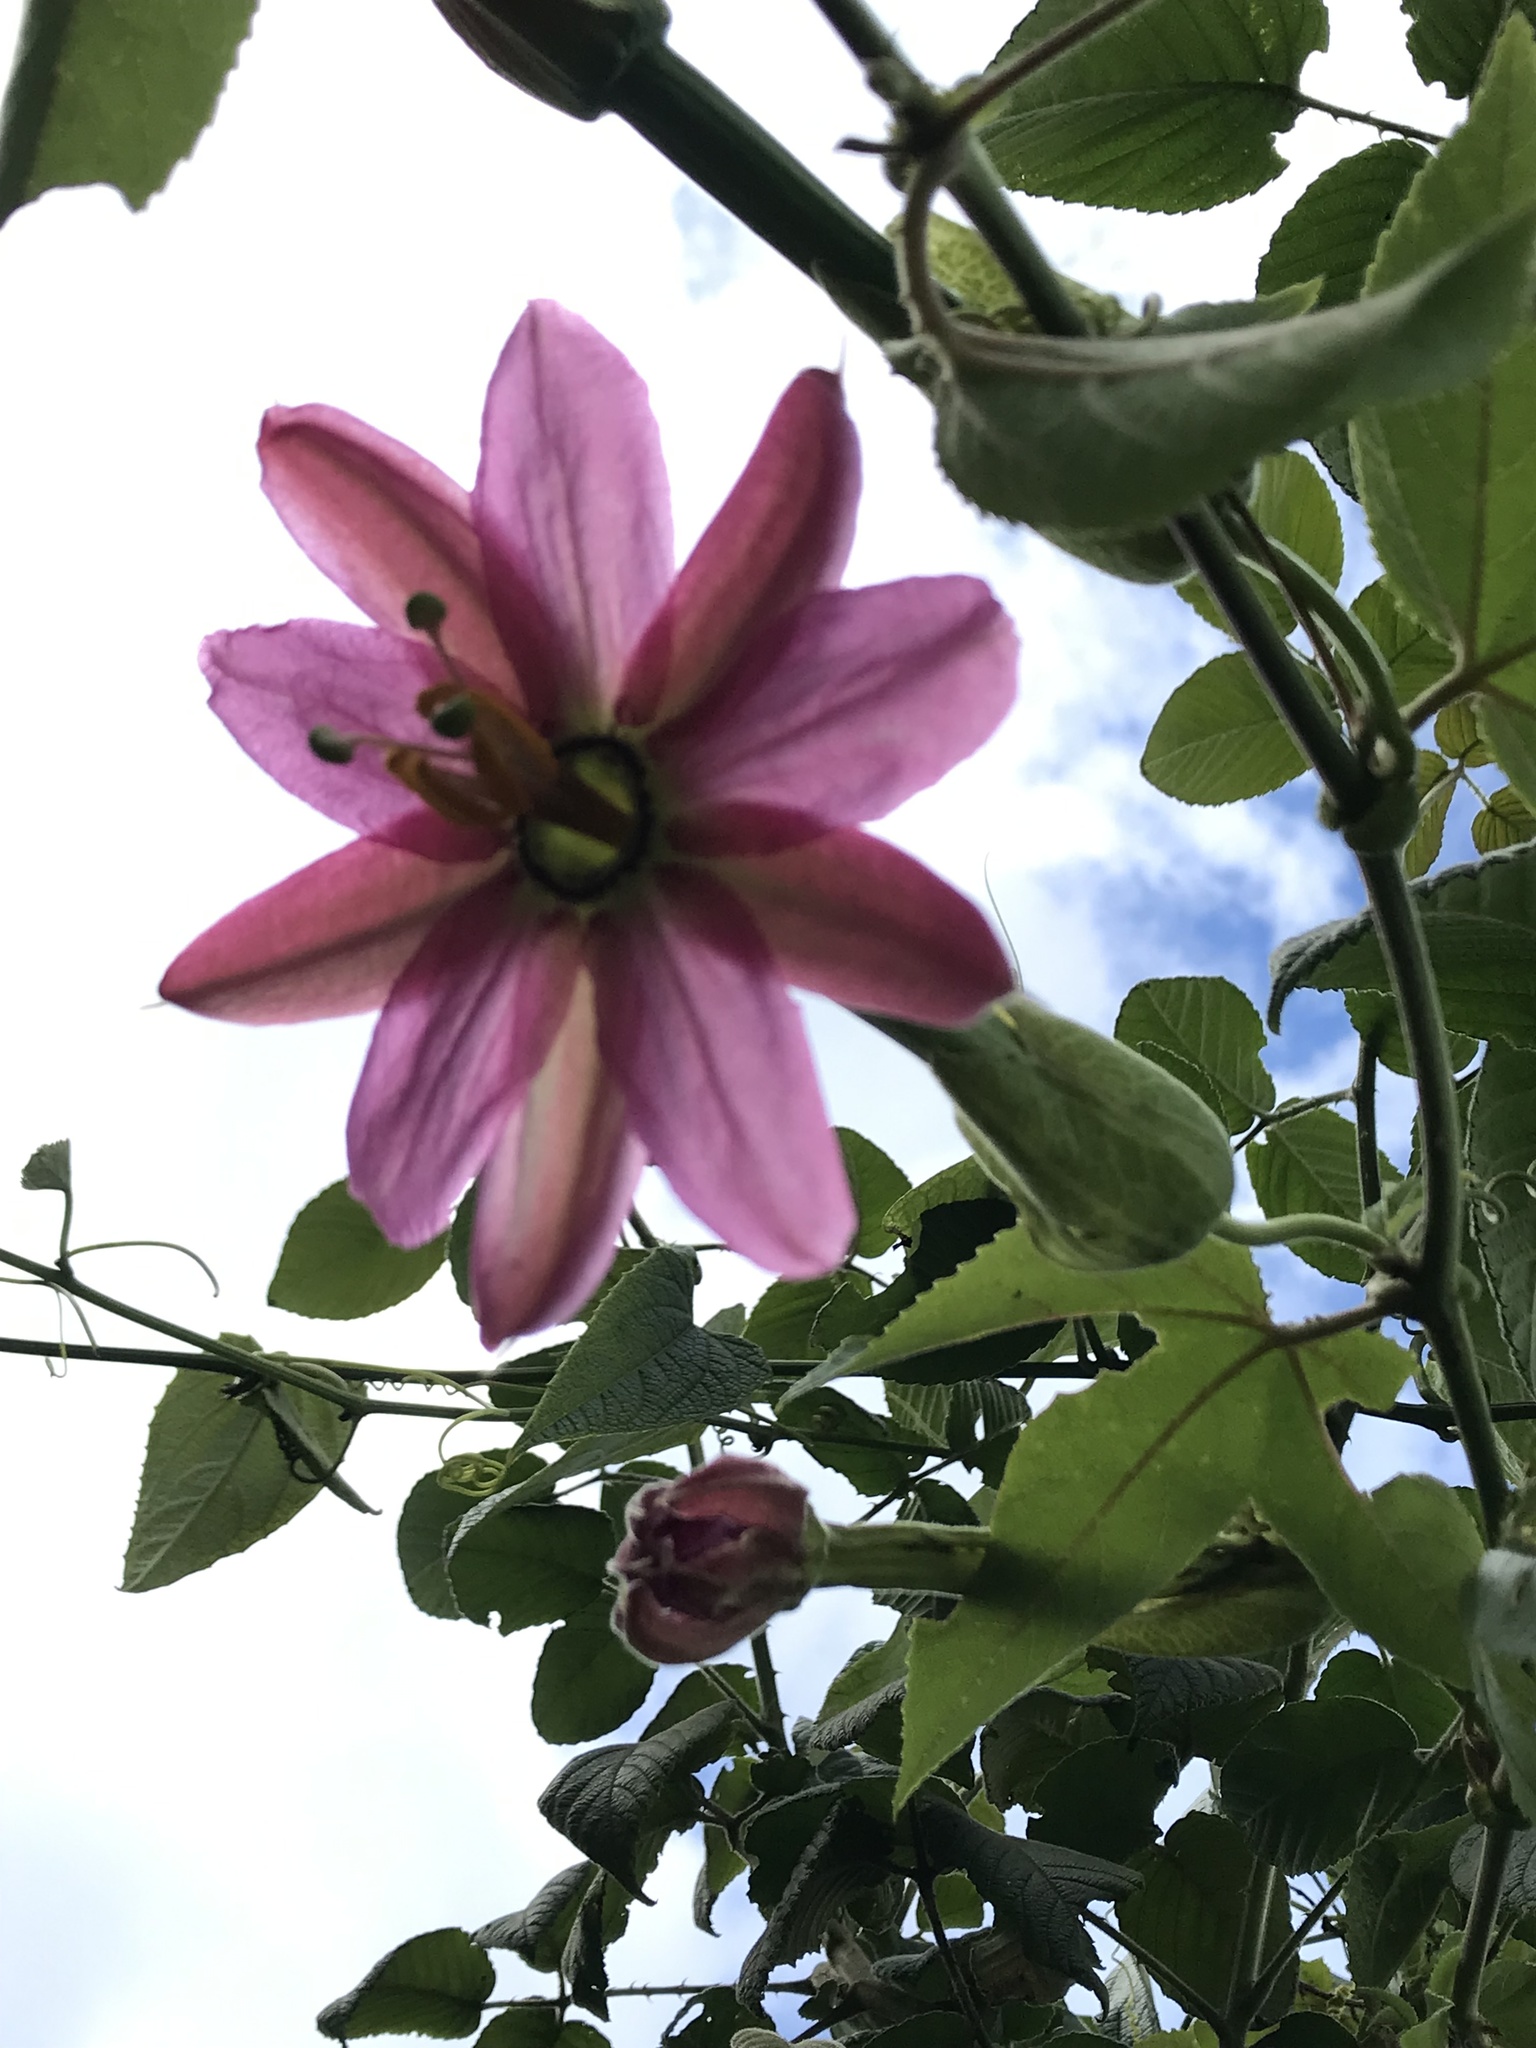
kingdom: Plantae
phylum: Tracheophyta
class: Magnoliopsida
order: Malpighiales
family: Passifloraceae
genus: Passiflora
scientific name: Passiflora tarminiana
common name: Banana poka
